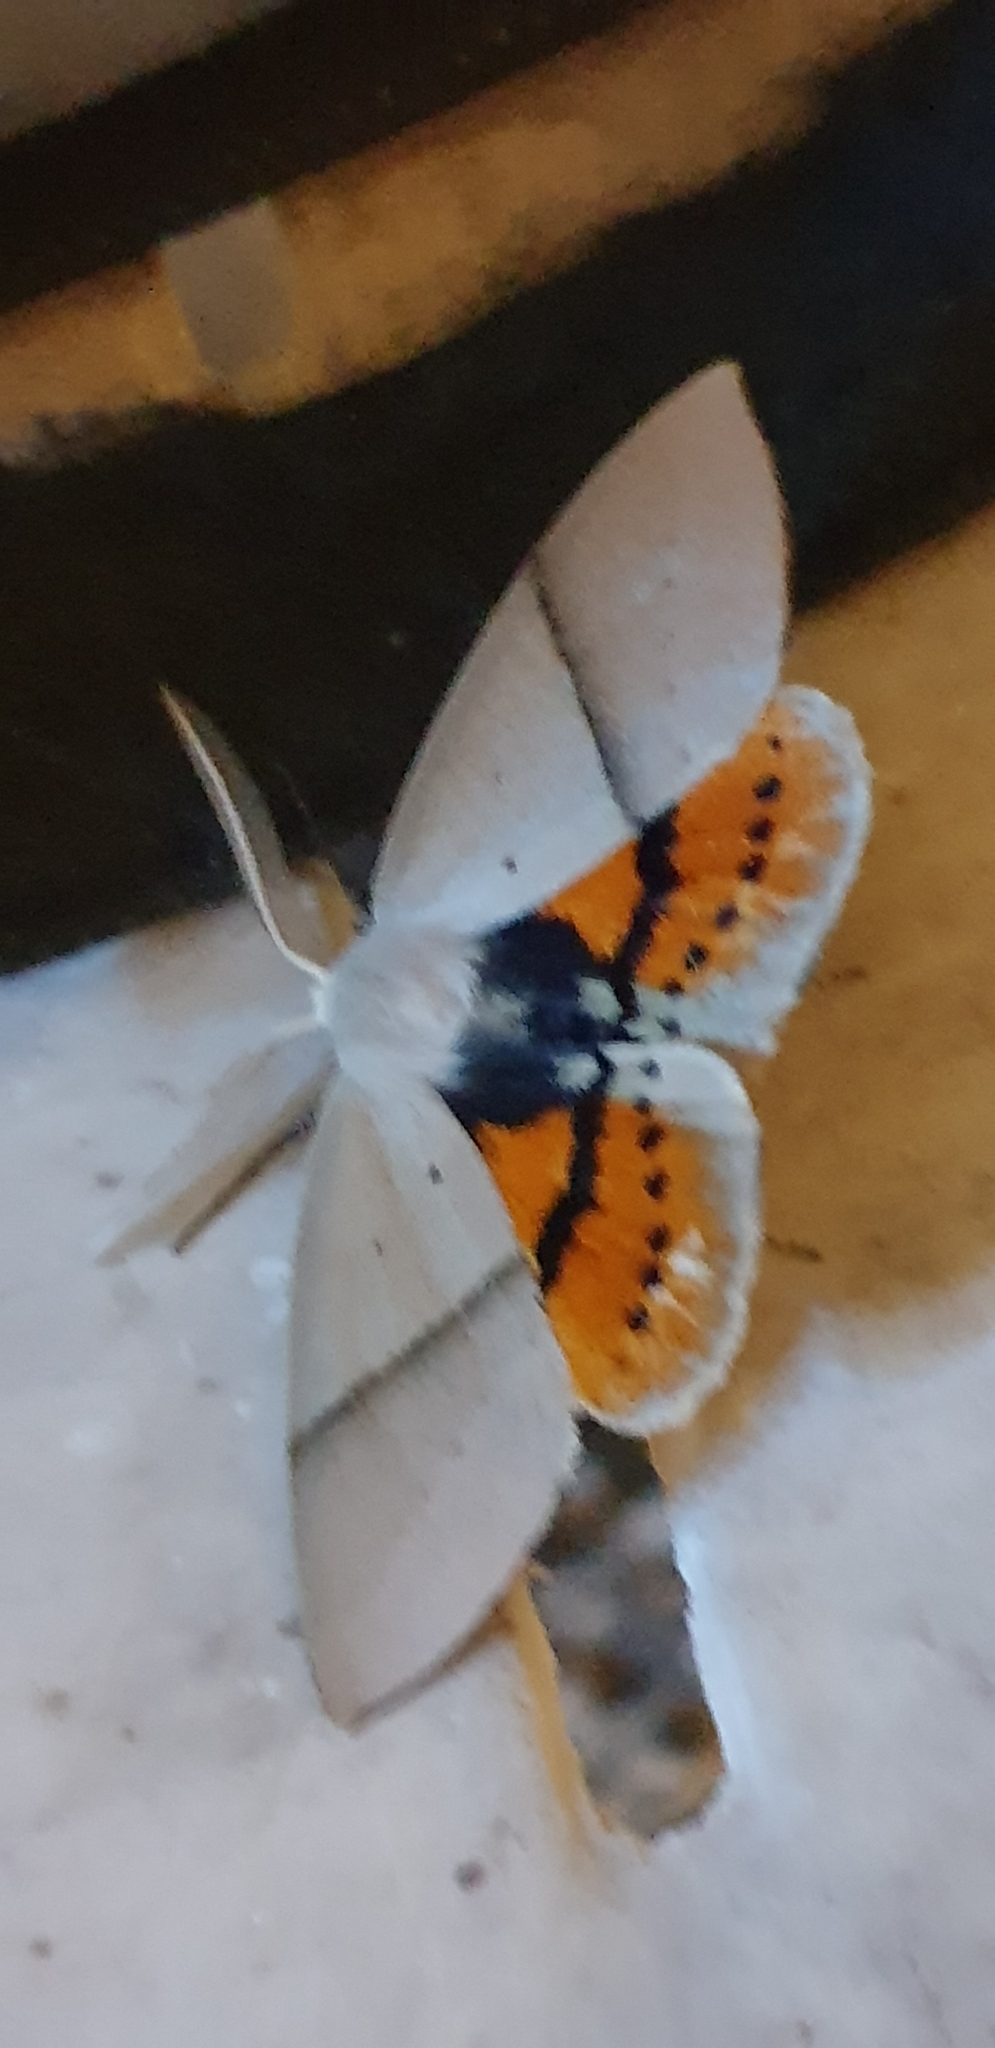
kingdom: Animalia
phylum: Arthropoda
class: Insecta
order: Lepidoptera
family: Geometridae
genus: Gastrophora
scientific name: Gastrophora henricaria
